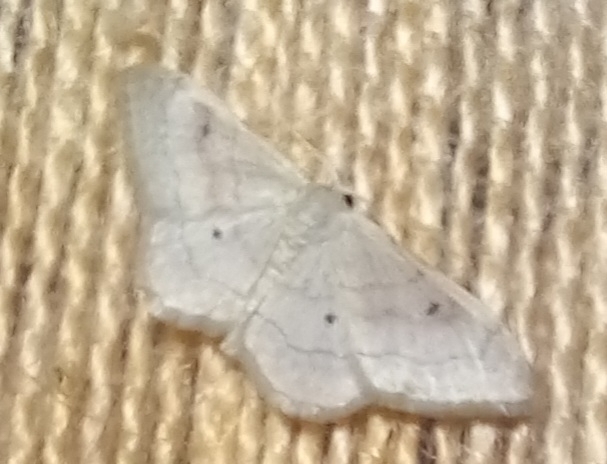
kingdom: Animalia
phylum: Arthropoda
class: Insecta
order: Lepidoptera
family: Geometridae
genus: Idaea
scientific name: Idaea bilinearia
